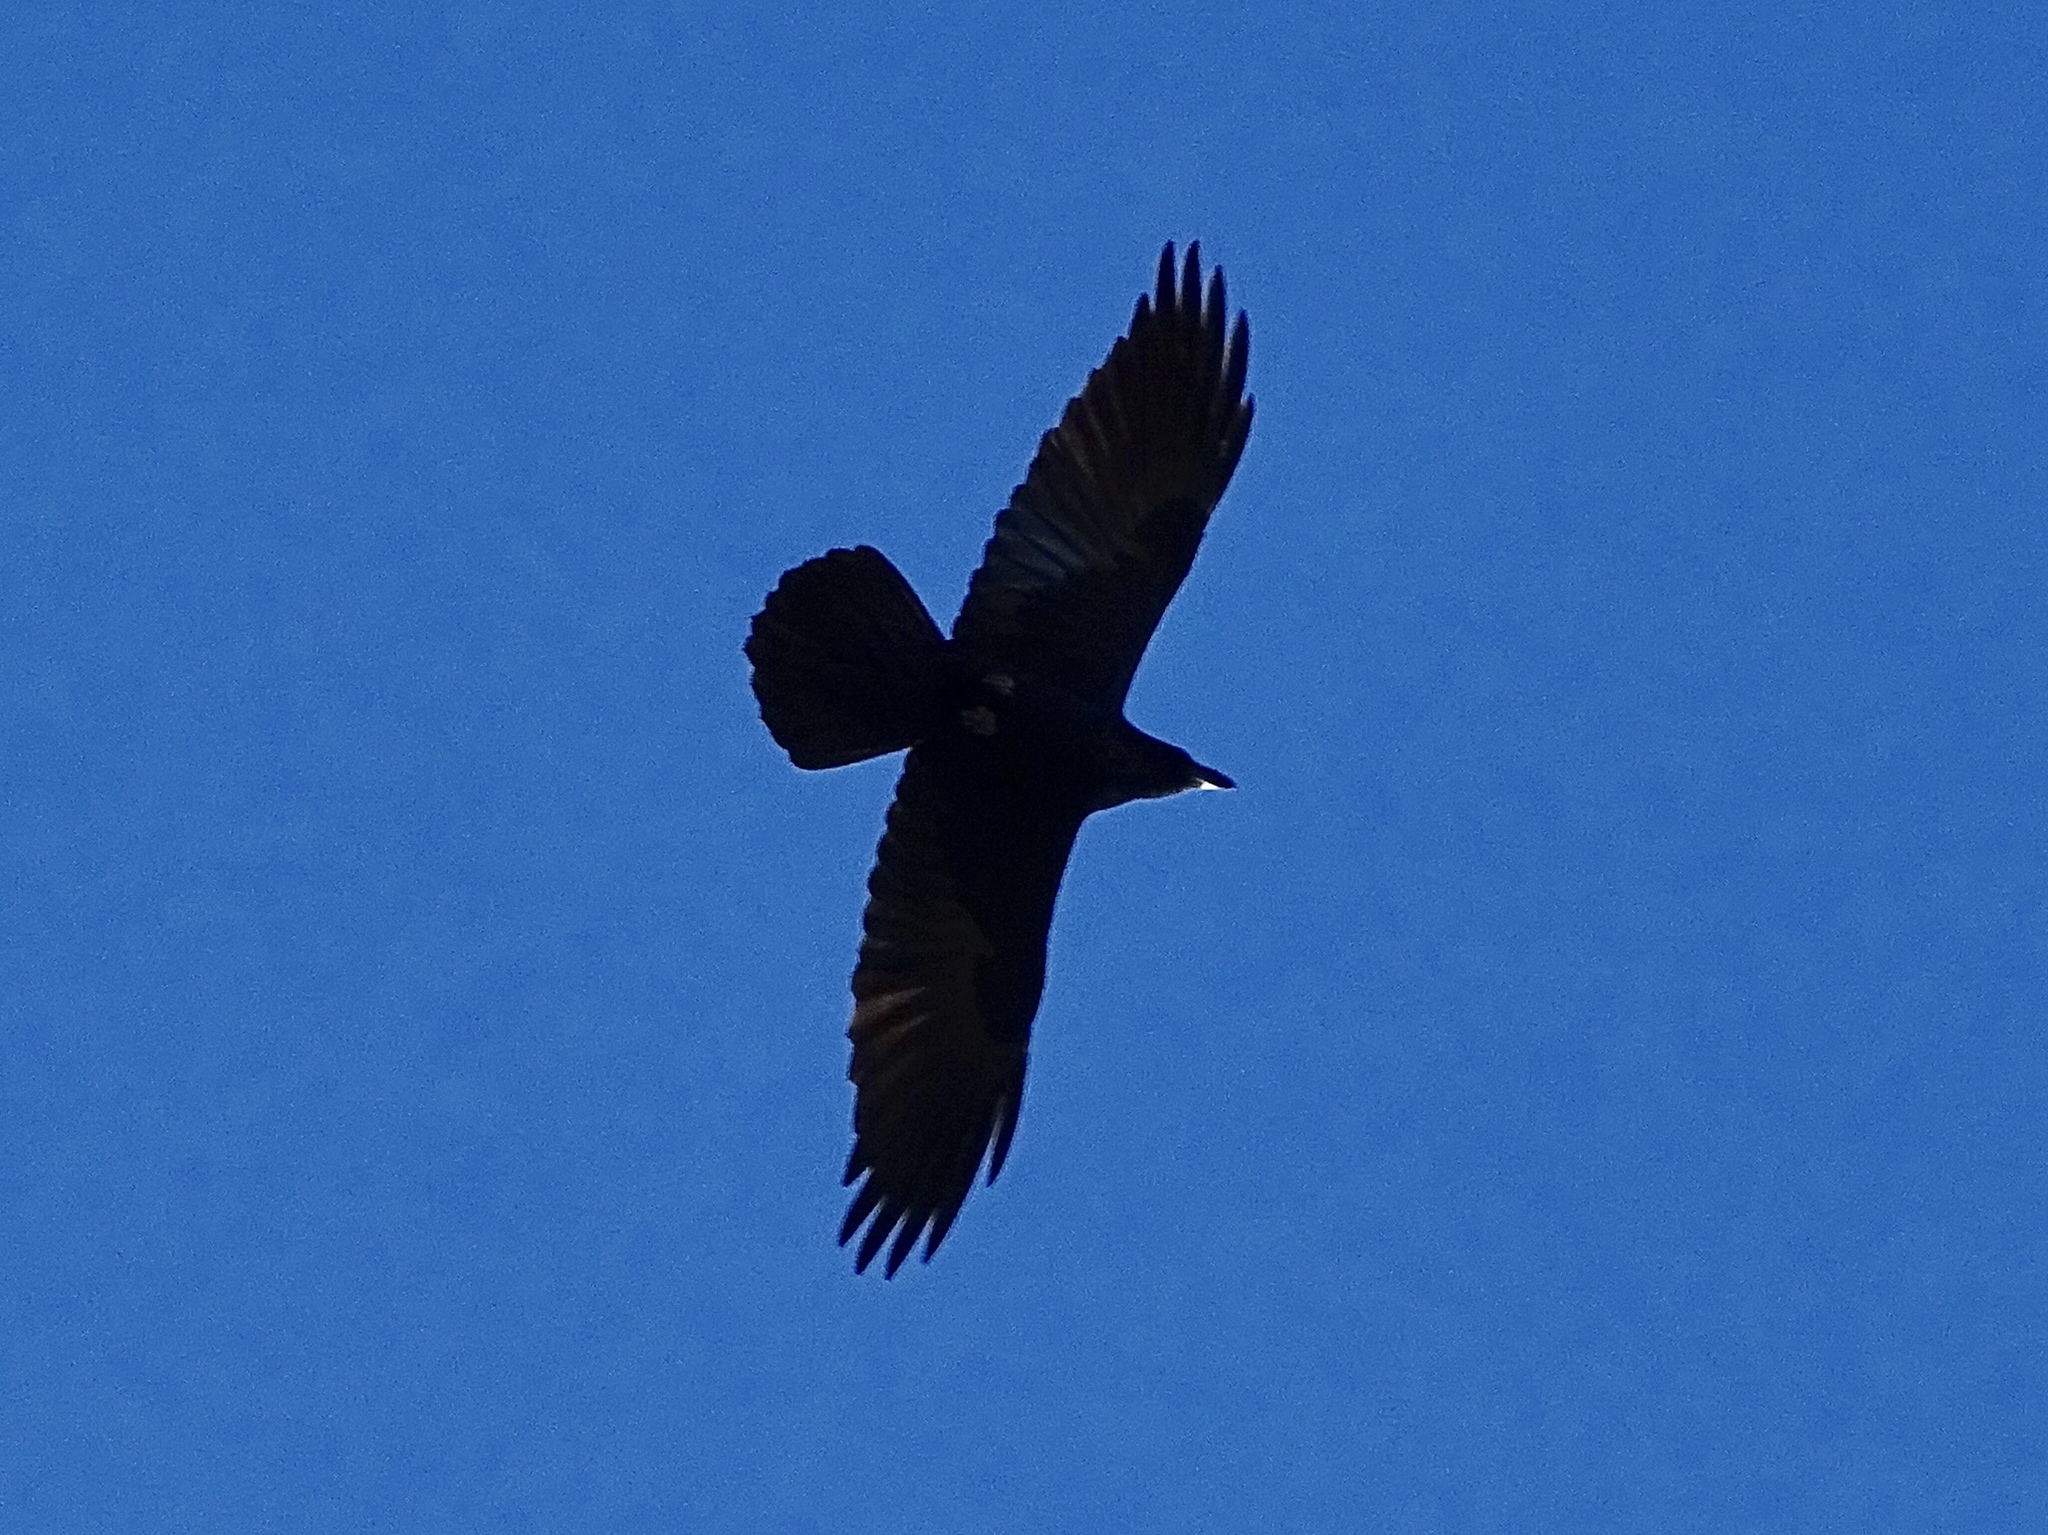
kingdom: Animalia
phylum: Chordata
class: Aves
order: Passeriformes
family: Corvidae
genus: Corvus
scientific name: Corvus corax
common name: Common raven
